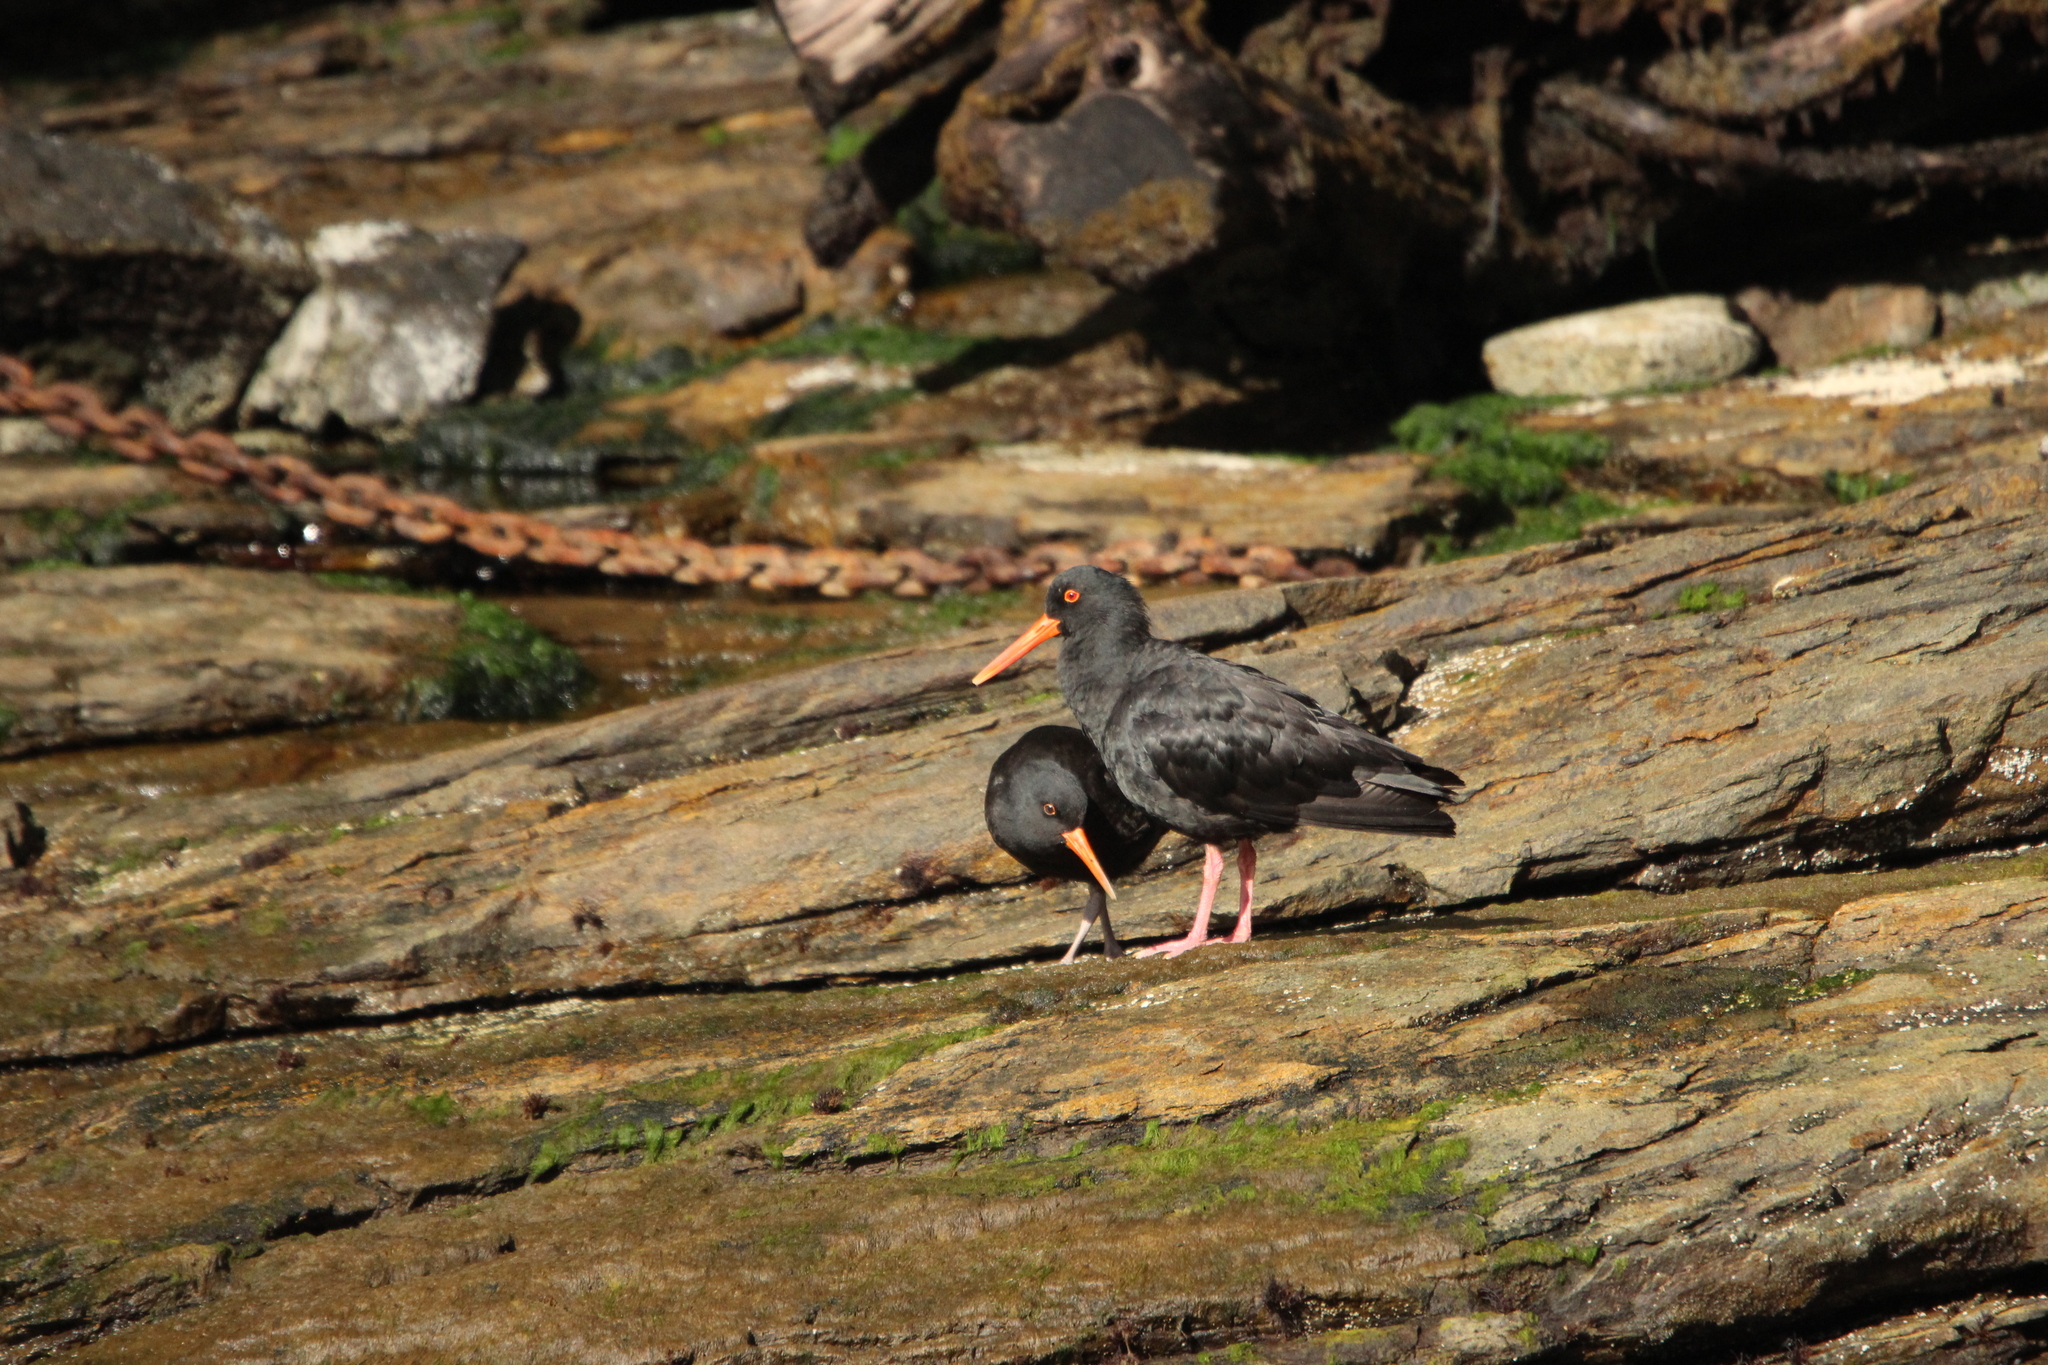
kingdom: Animalia
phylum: Chordata
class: Aves
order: Charadriiformes
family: Haematopodidae
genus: Haematopus
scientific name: Haematopus unicolor
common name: Variable oystercatcher
